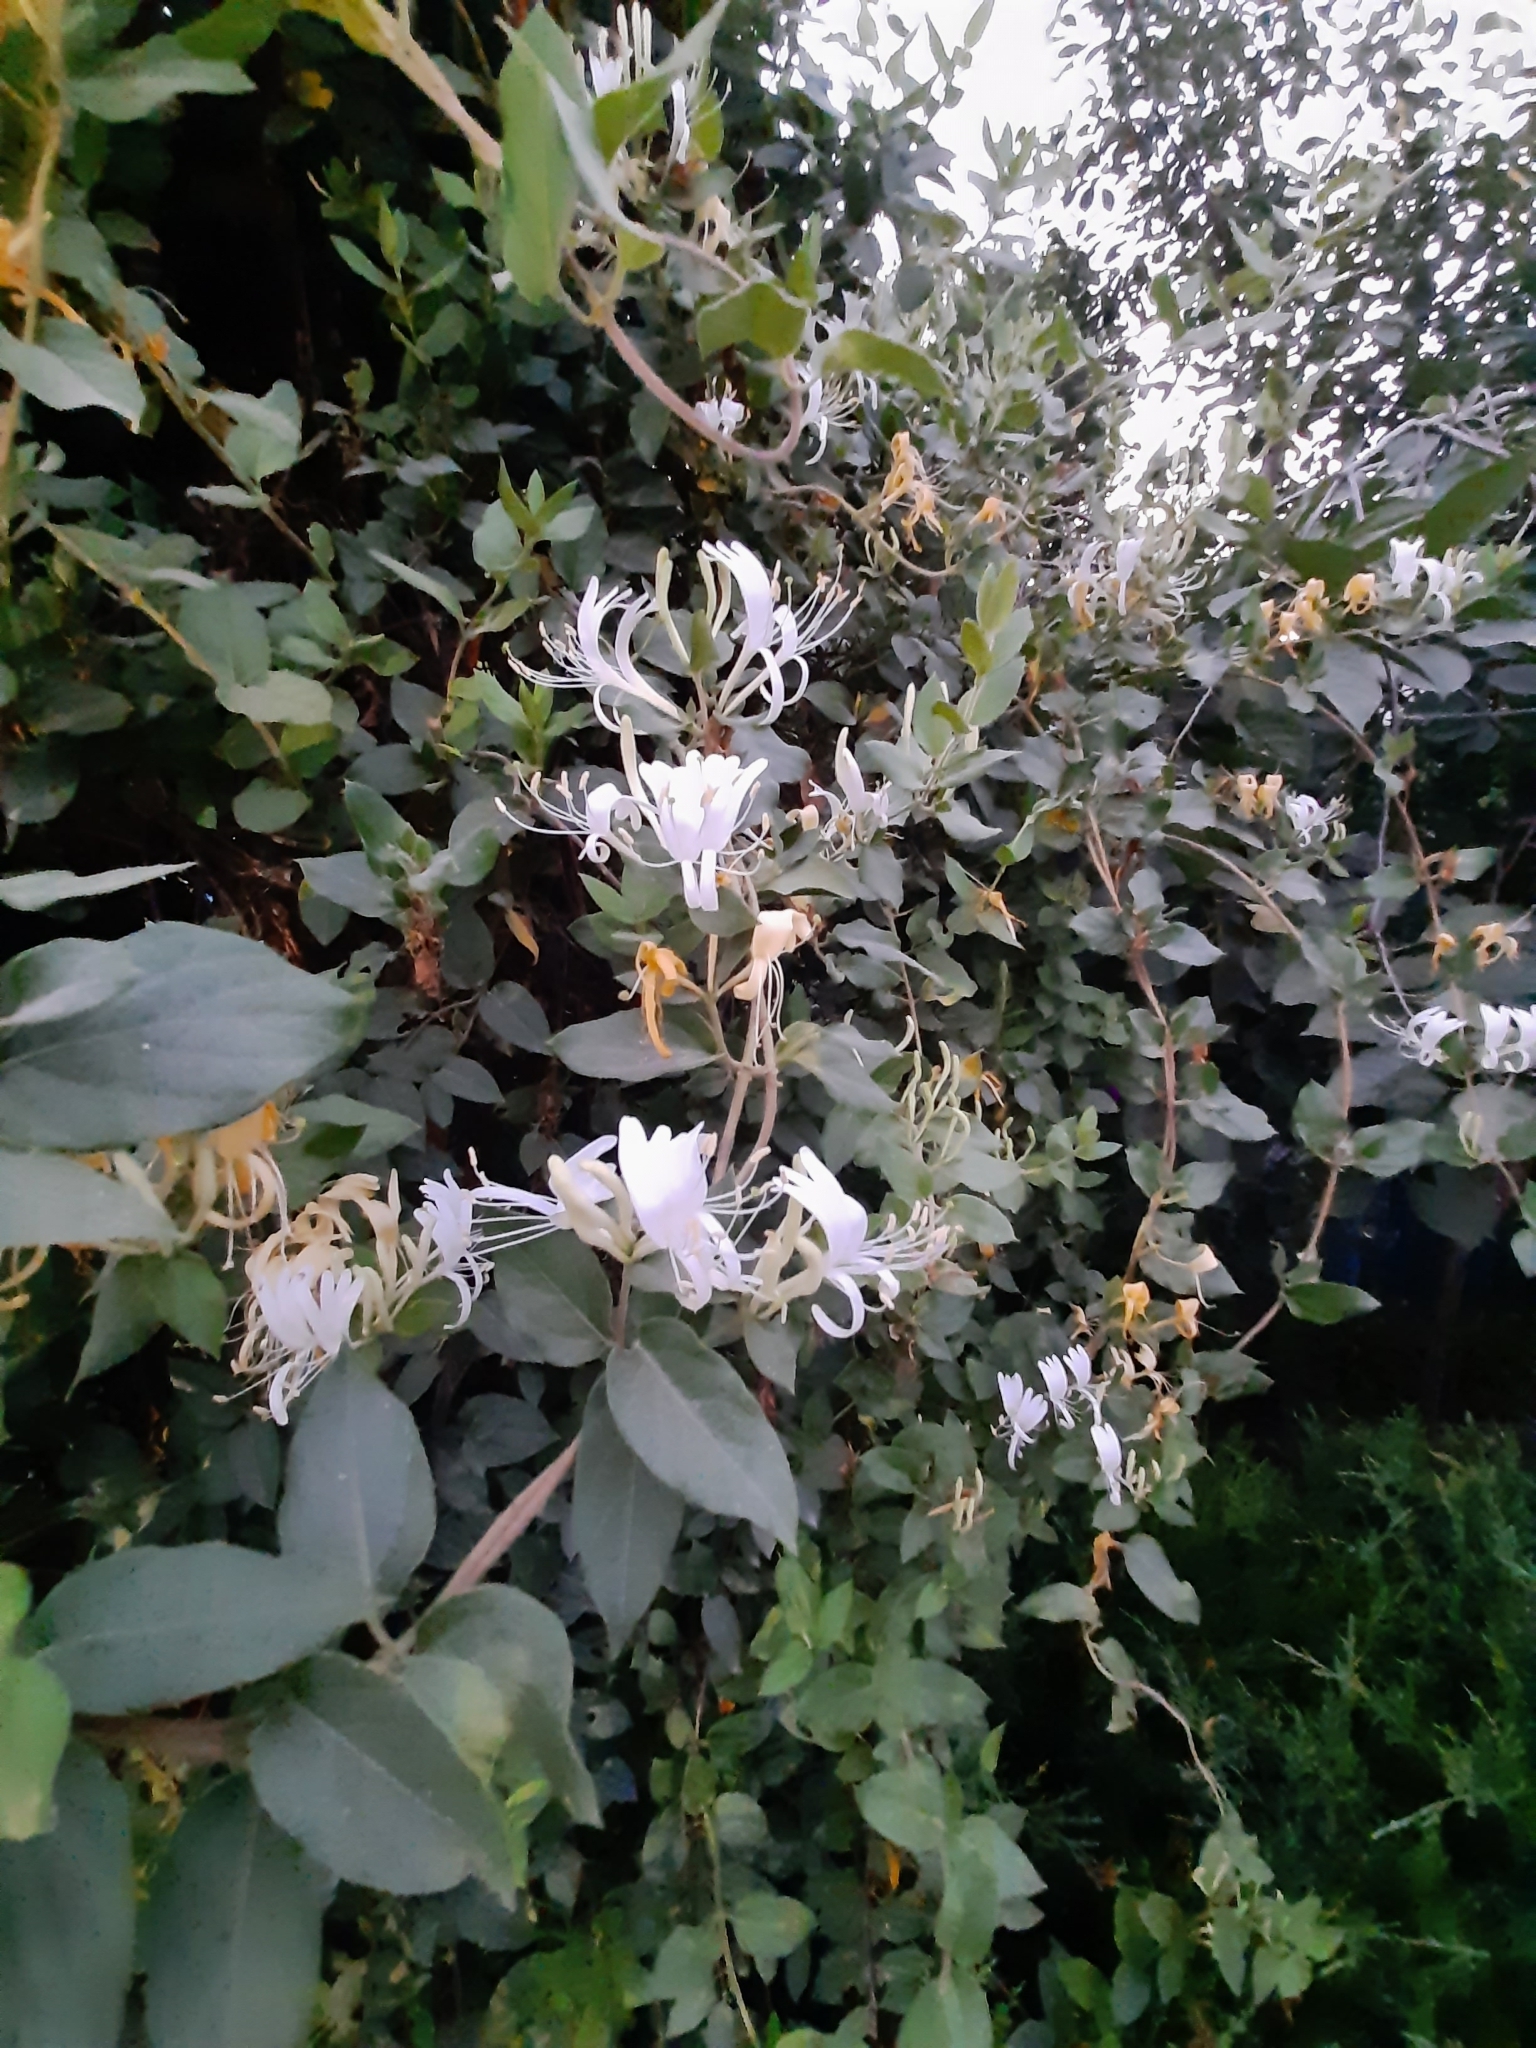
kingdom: Plantae
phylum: Tracheophyta
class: Magnoliopsida
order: Dipsacales
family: Caprifoliaceae
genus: Lonicera
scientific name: Lonicera japonica
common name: Japanese honeysuckle
